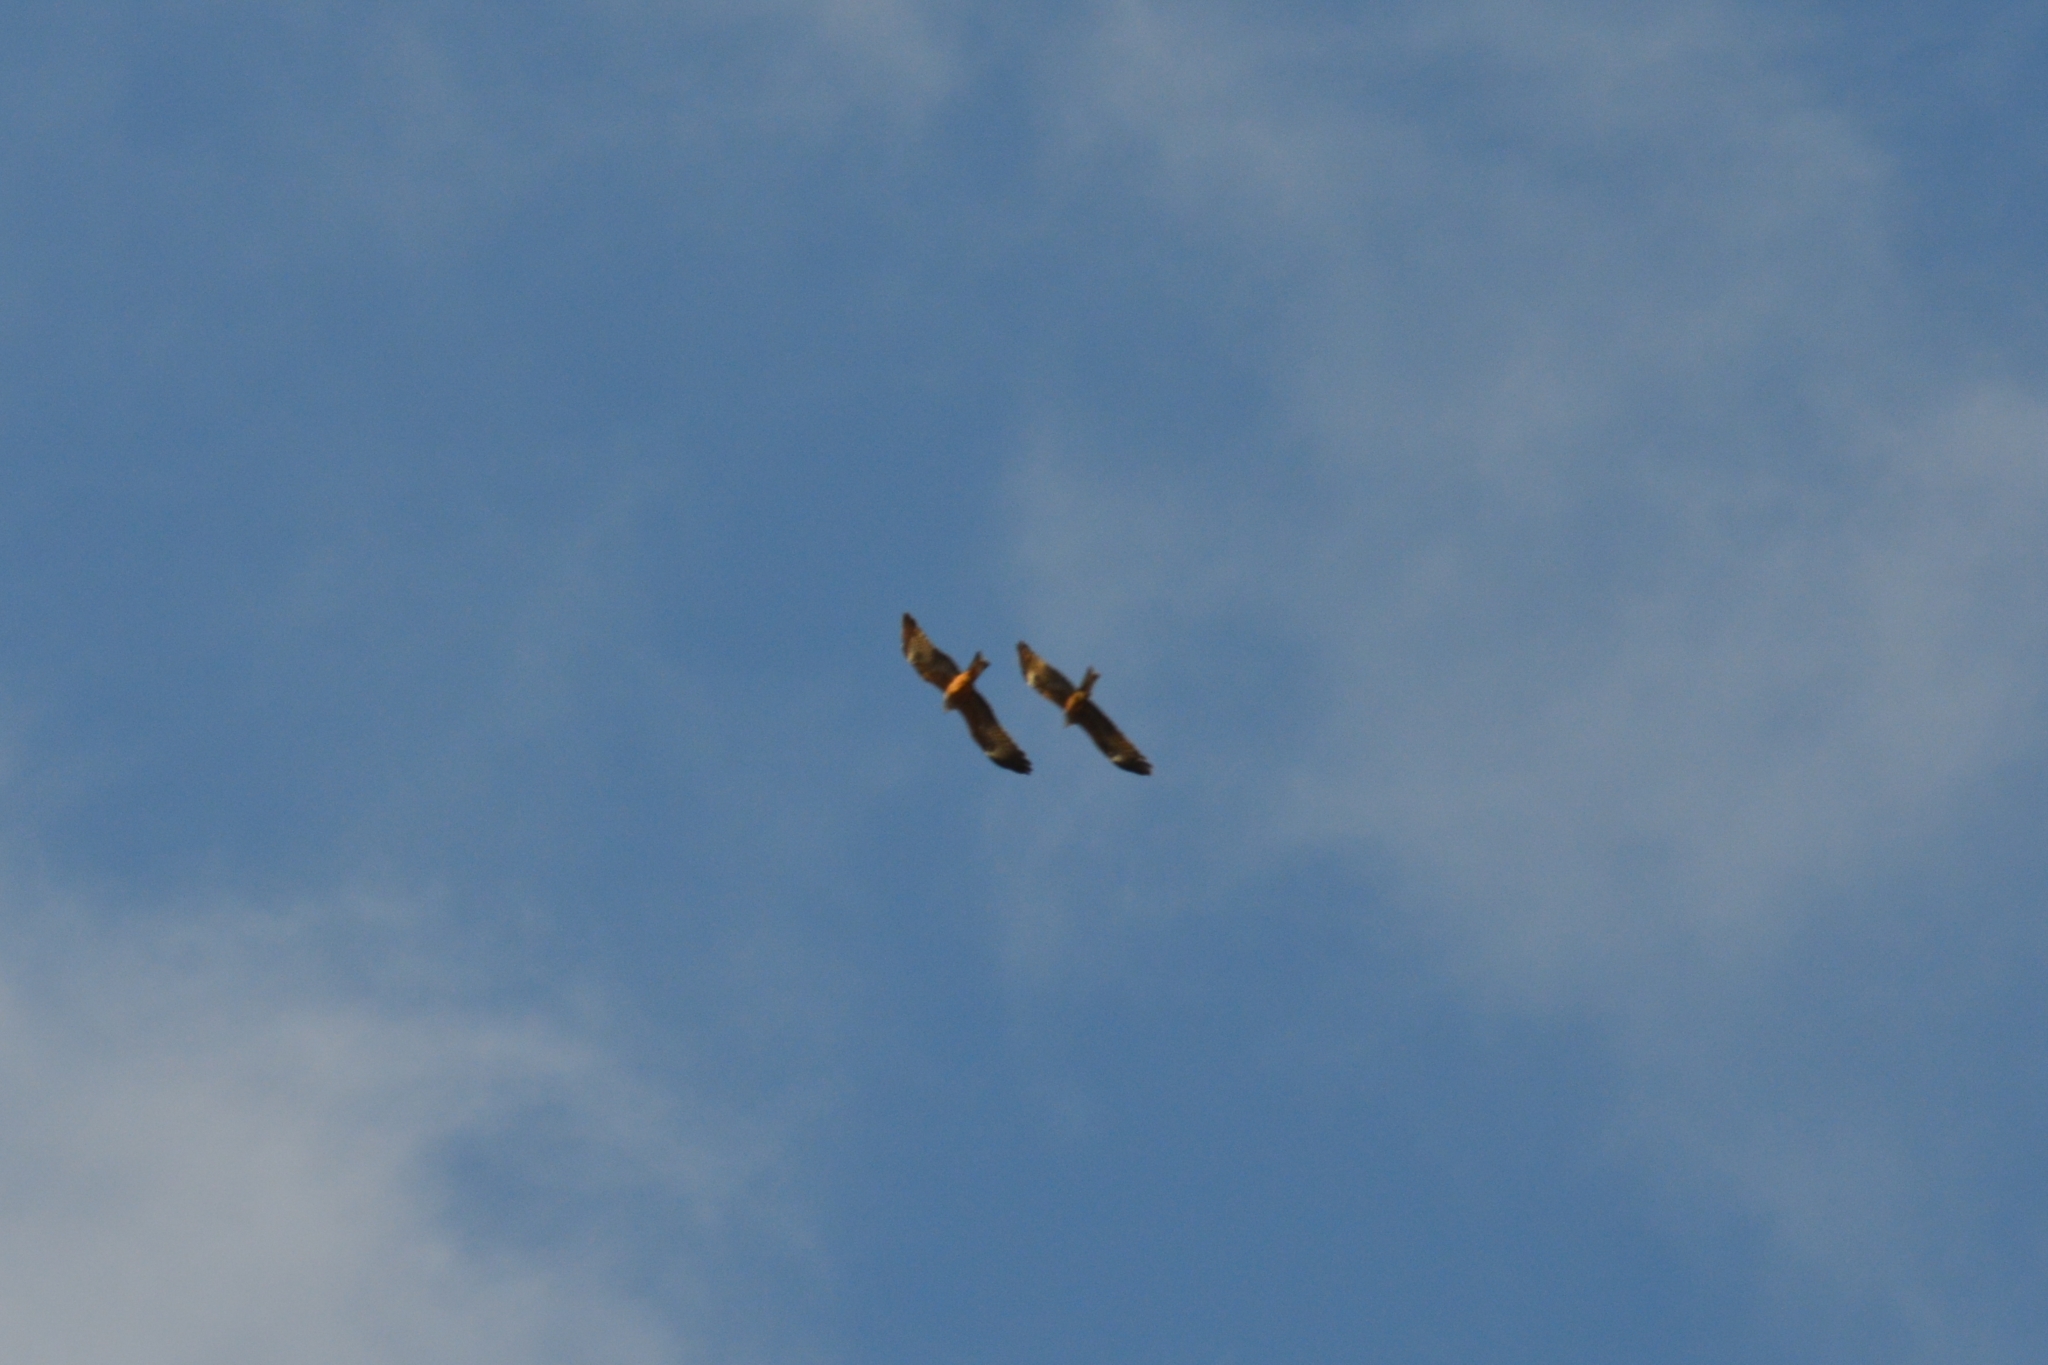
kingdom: Animalia
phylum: Chordata
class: Aves
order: Accipitriformes
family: Accipitridae
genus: Milvus
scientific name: Milvus migrans
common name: Black kite
